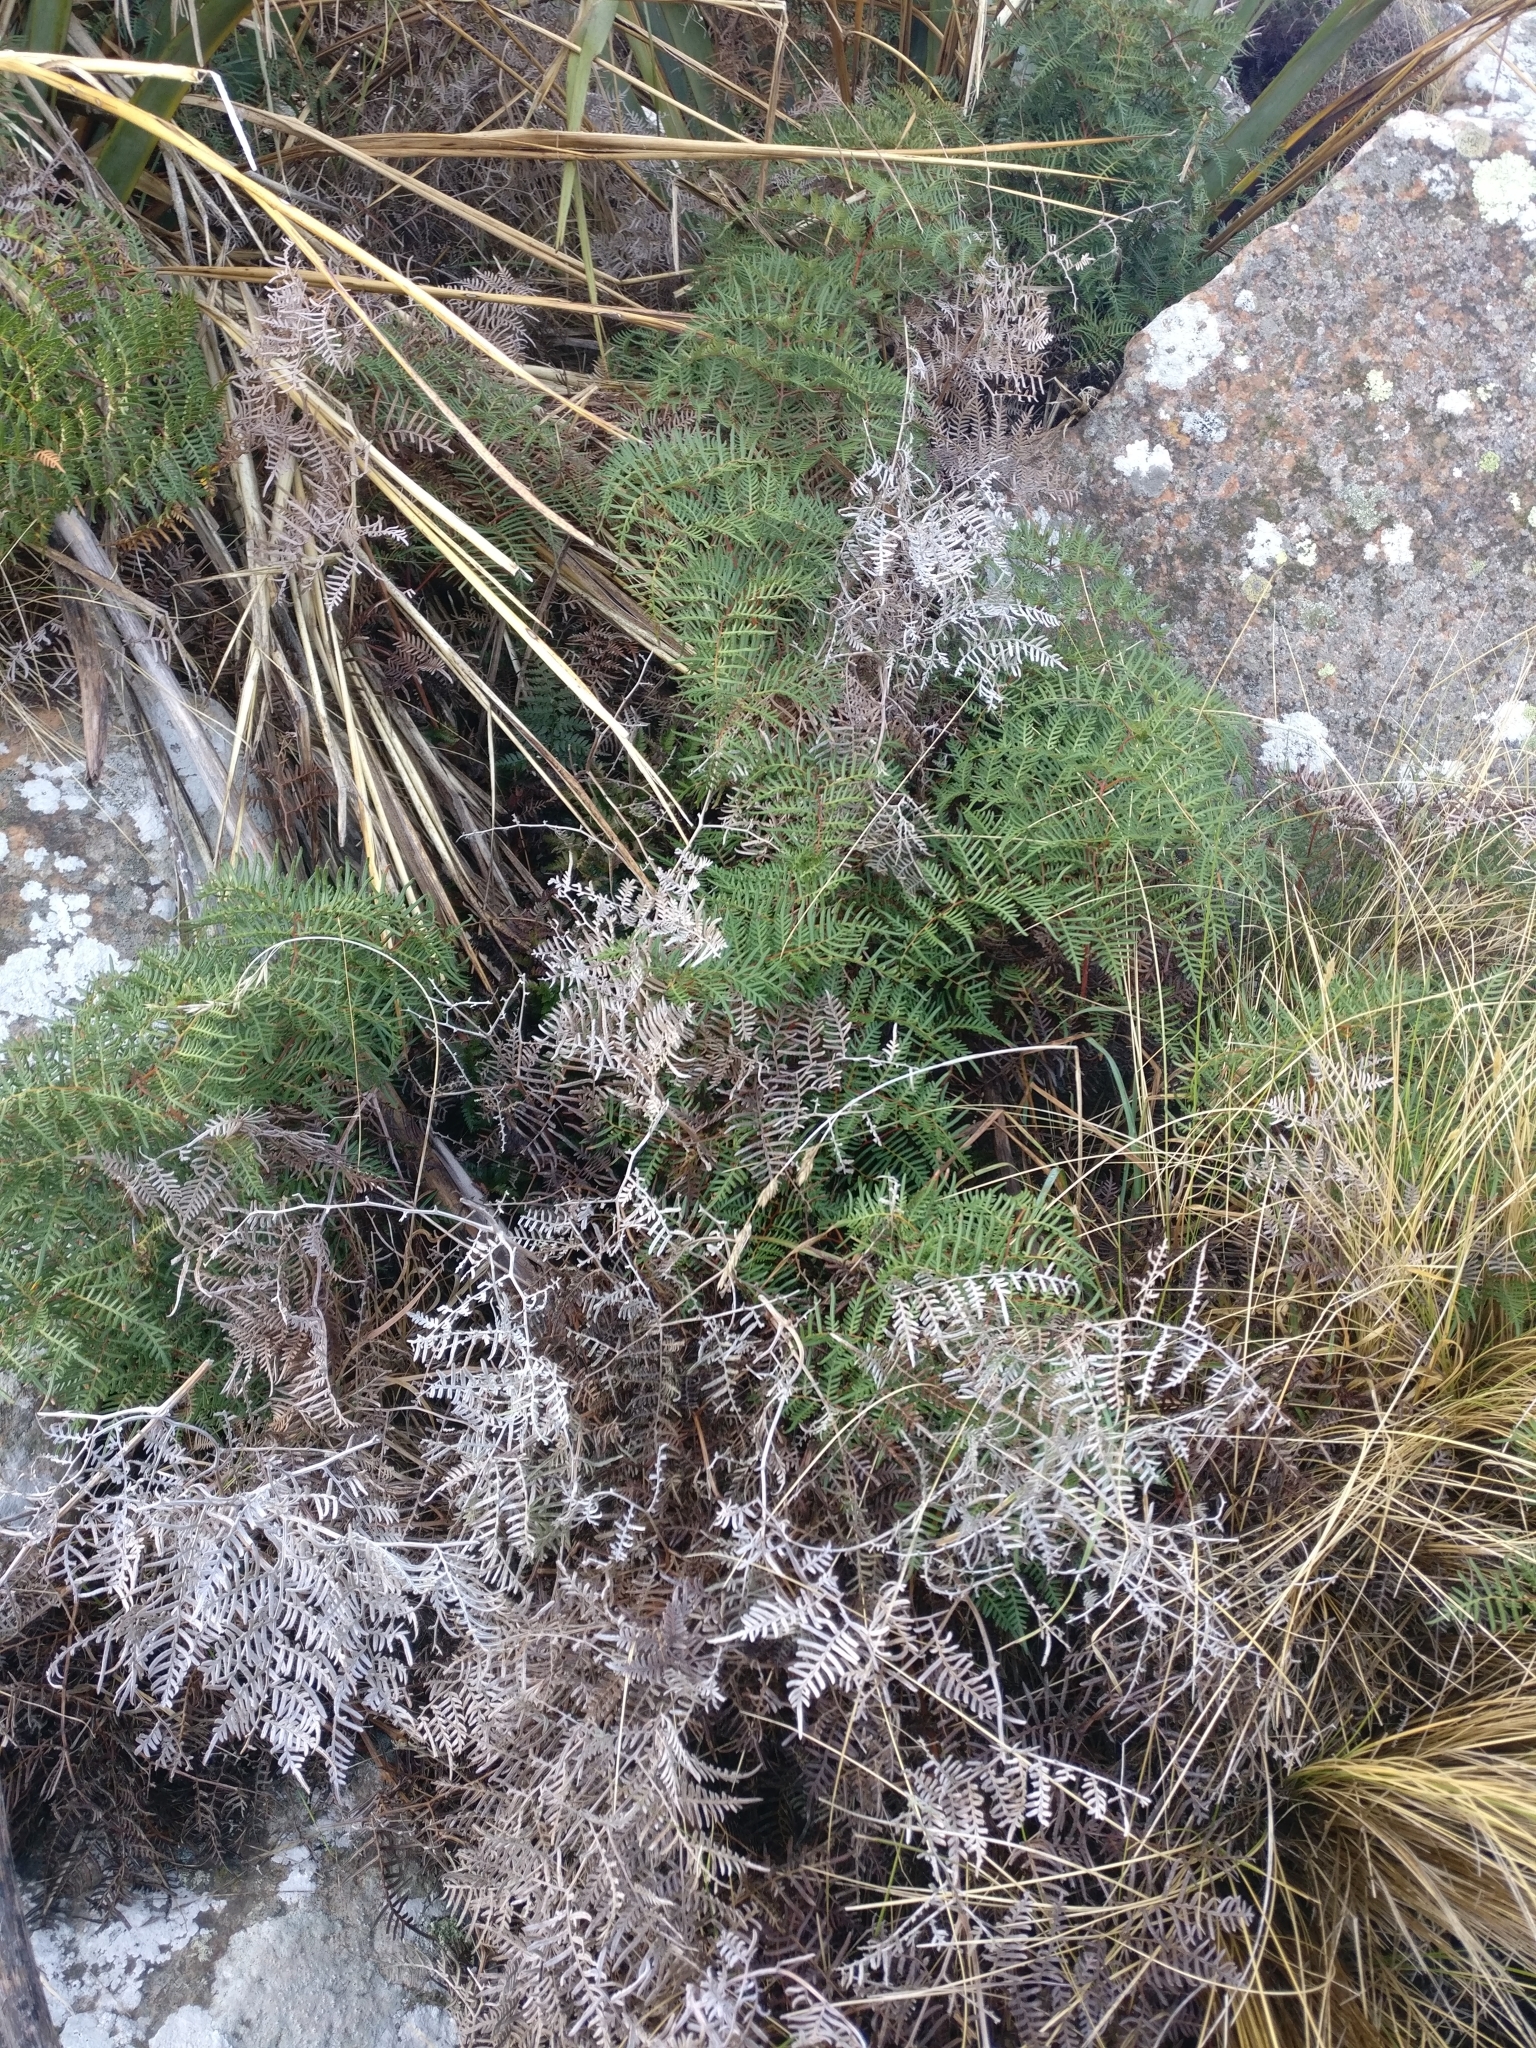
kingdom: Plantae
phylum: Tracheophyta
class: Polypodiopsida
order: Polypodiales
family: Dennstaedtiaceae
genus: Pteridium
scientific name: Pteridium esculentum
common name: Bracken fern
